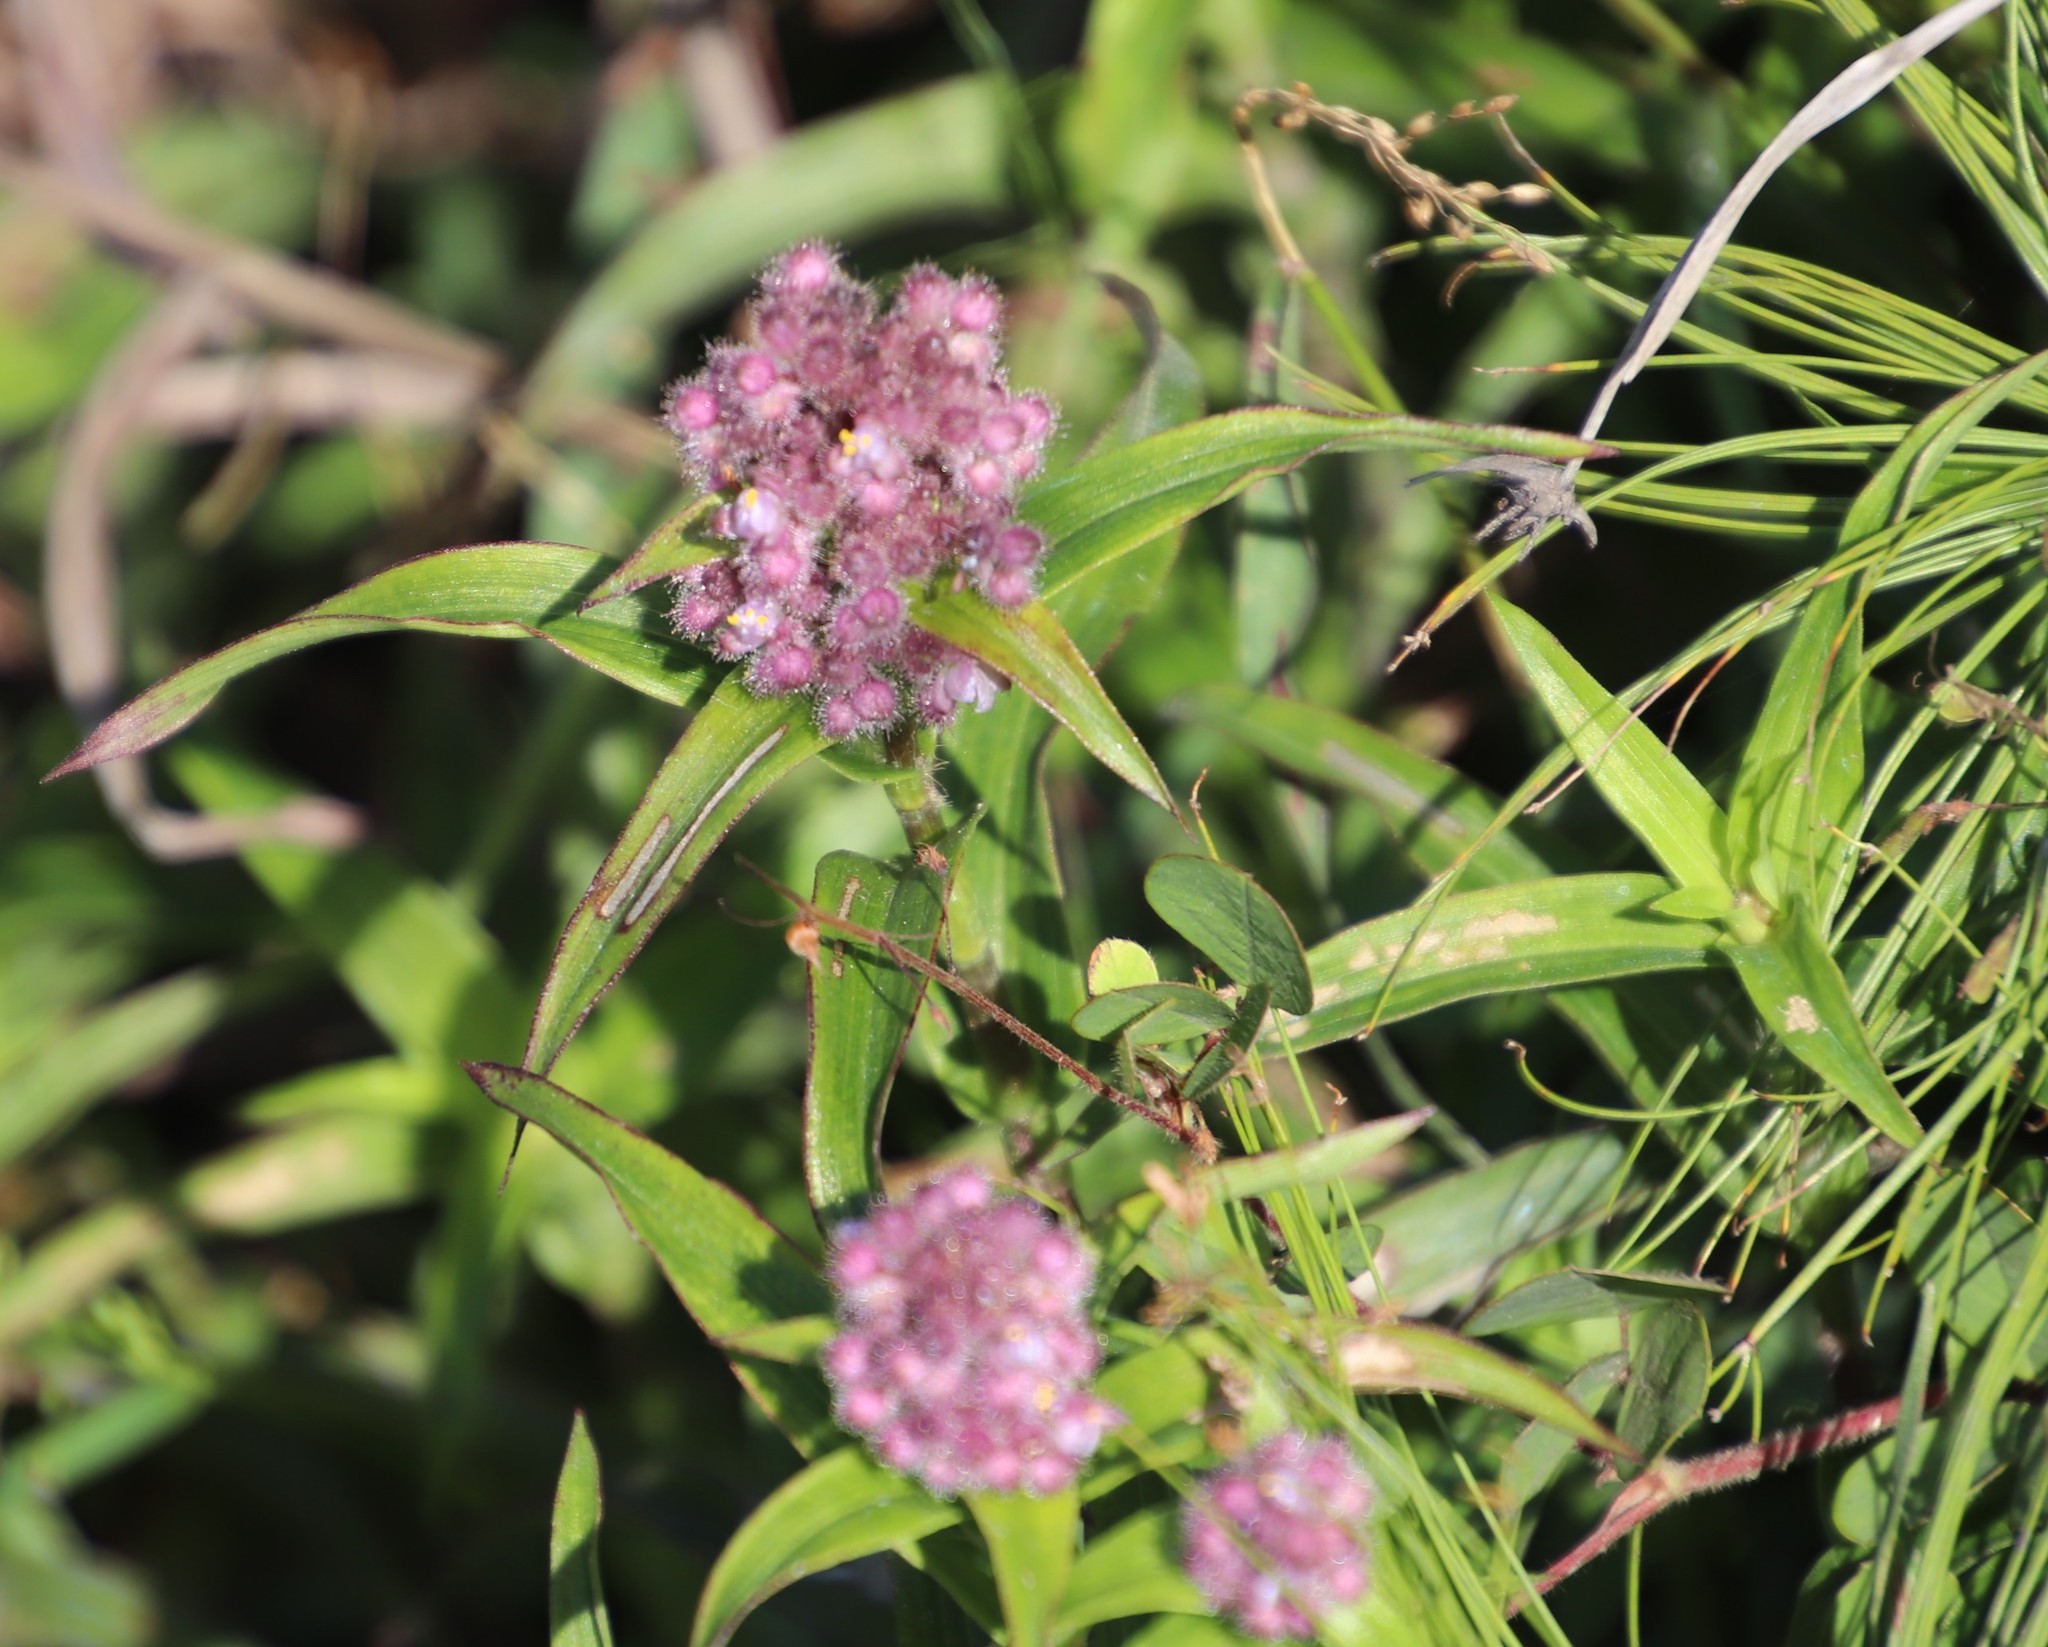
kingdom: Plantae
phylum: Tracheophyta
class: Liliopsida
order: Commelinales
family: Commelinaceae
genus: Floscopa
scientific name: Floscopa glomerata
